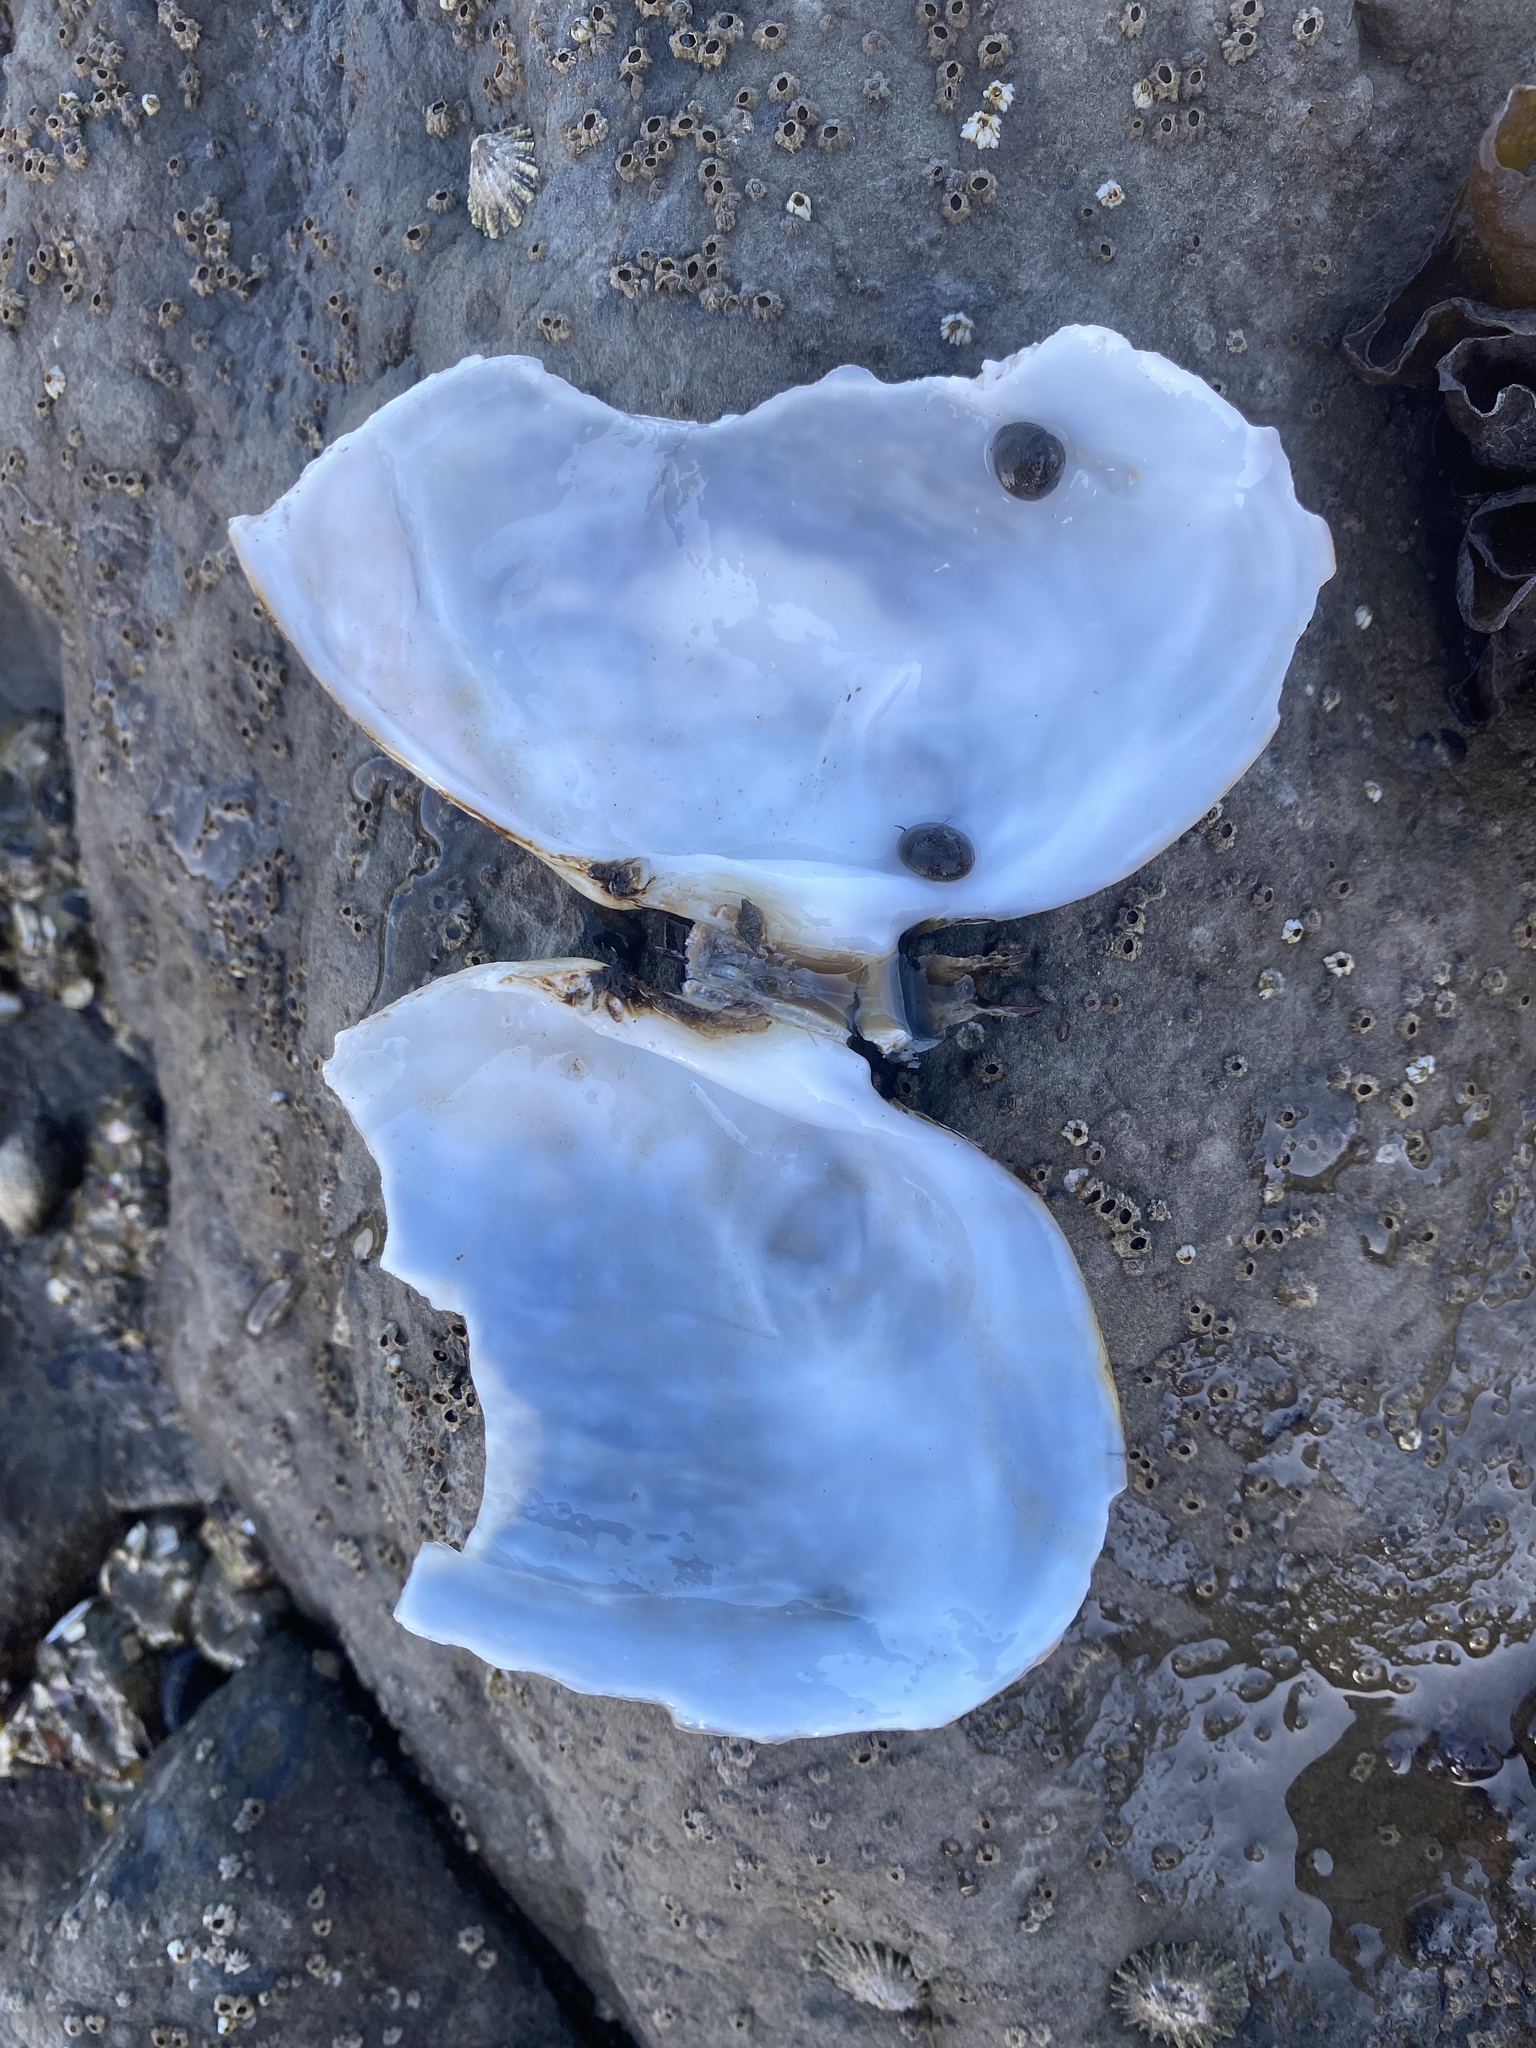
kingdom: Animalia
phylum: Mollusca
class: Bivalvia
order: Cardiida
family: Psammobiidae
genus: Gari
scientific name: Gari californica
